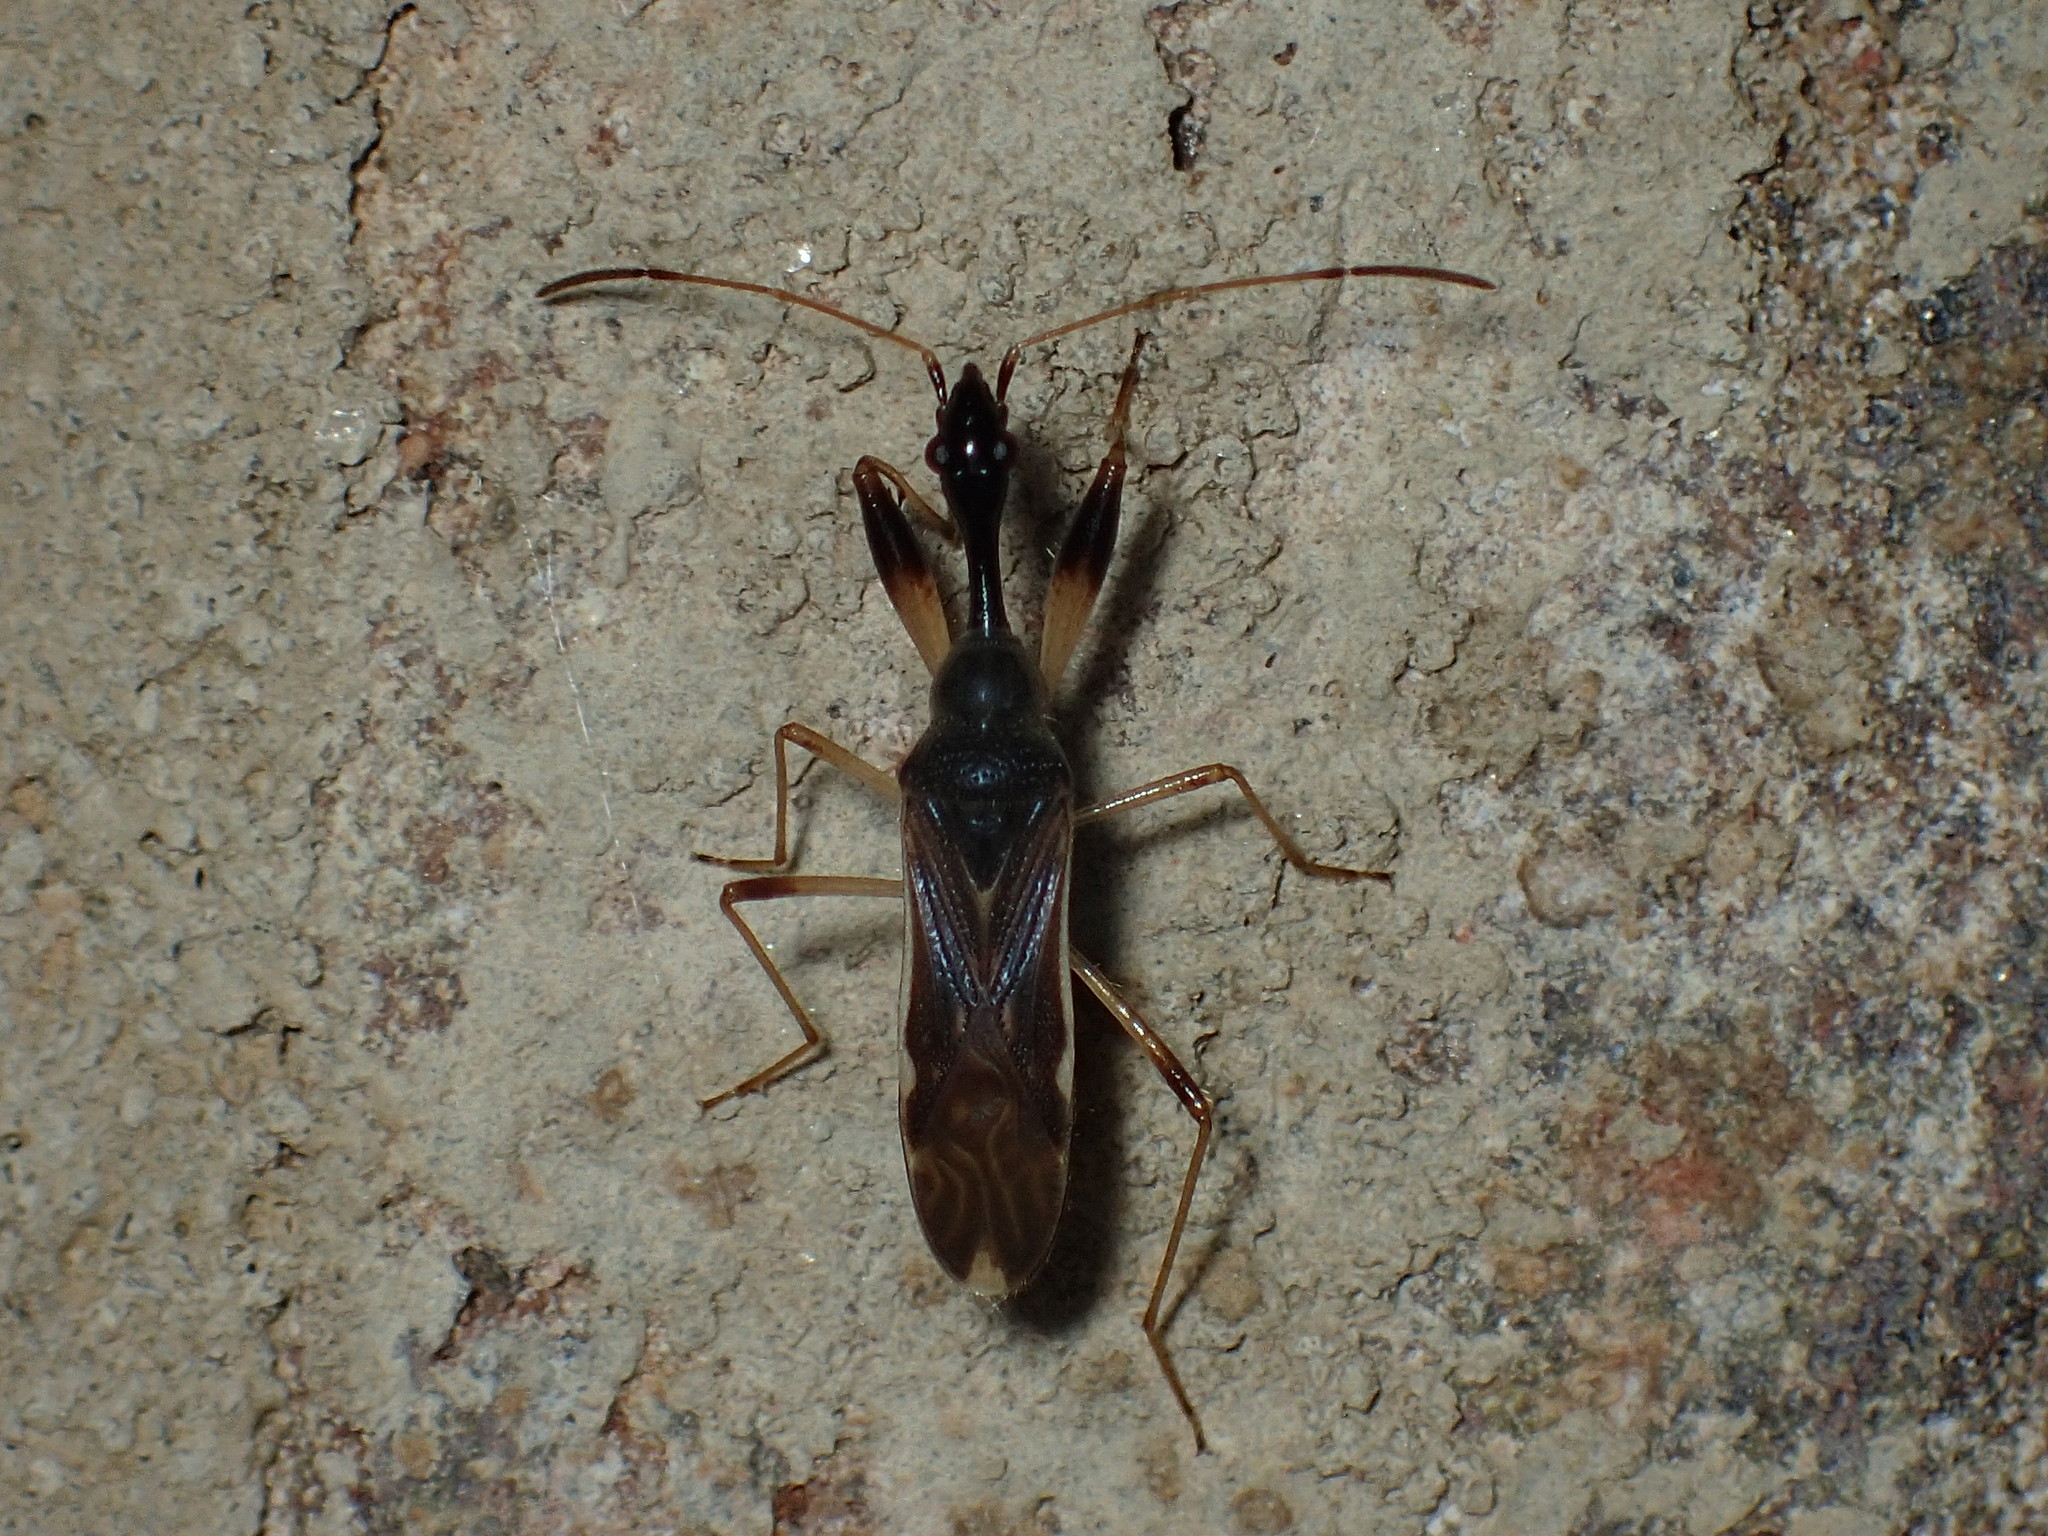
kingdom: Animalia
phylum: Arthropoda
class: Insecta
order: Hemiptera
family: Rhyparochromidae
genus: Myodocha
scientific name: Myodocha serripes
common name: Long-necked seed bug
